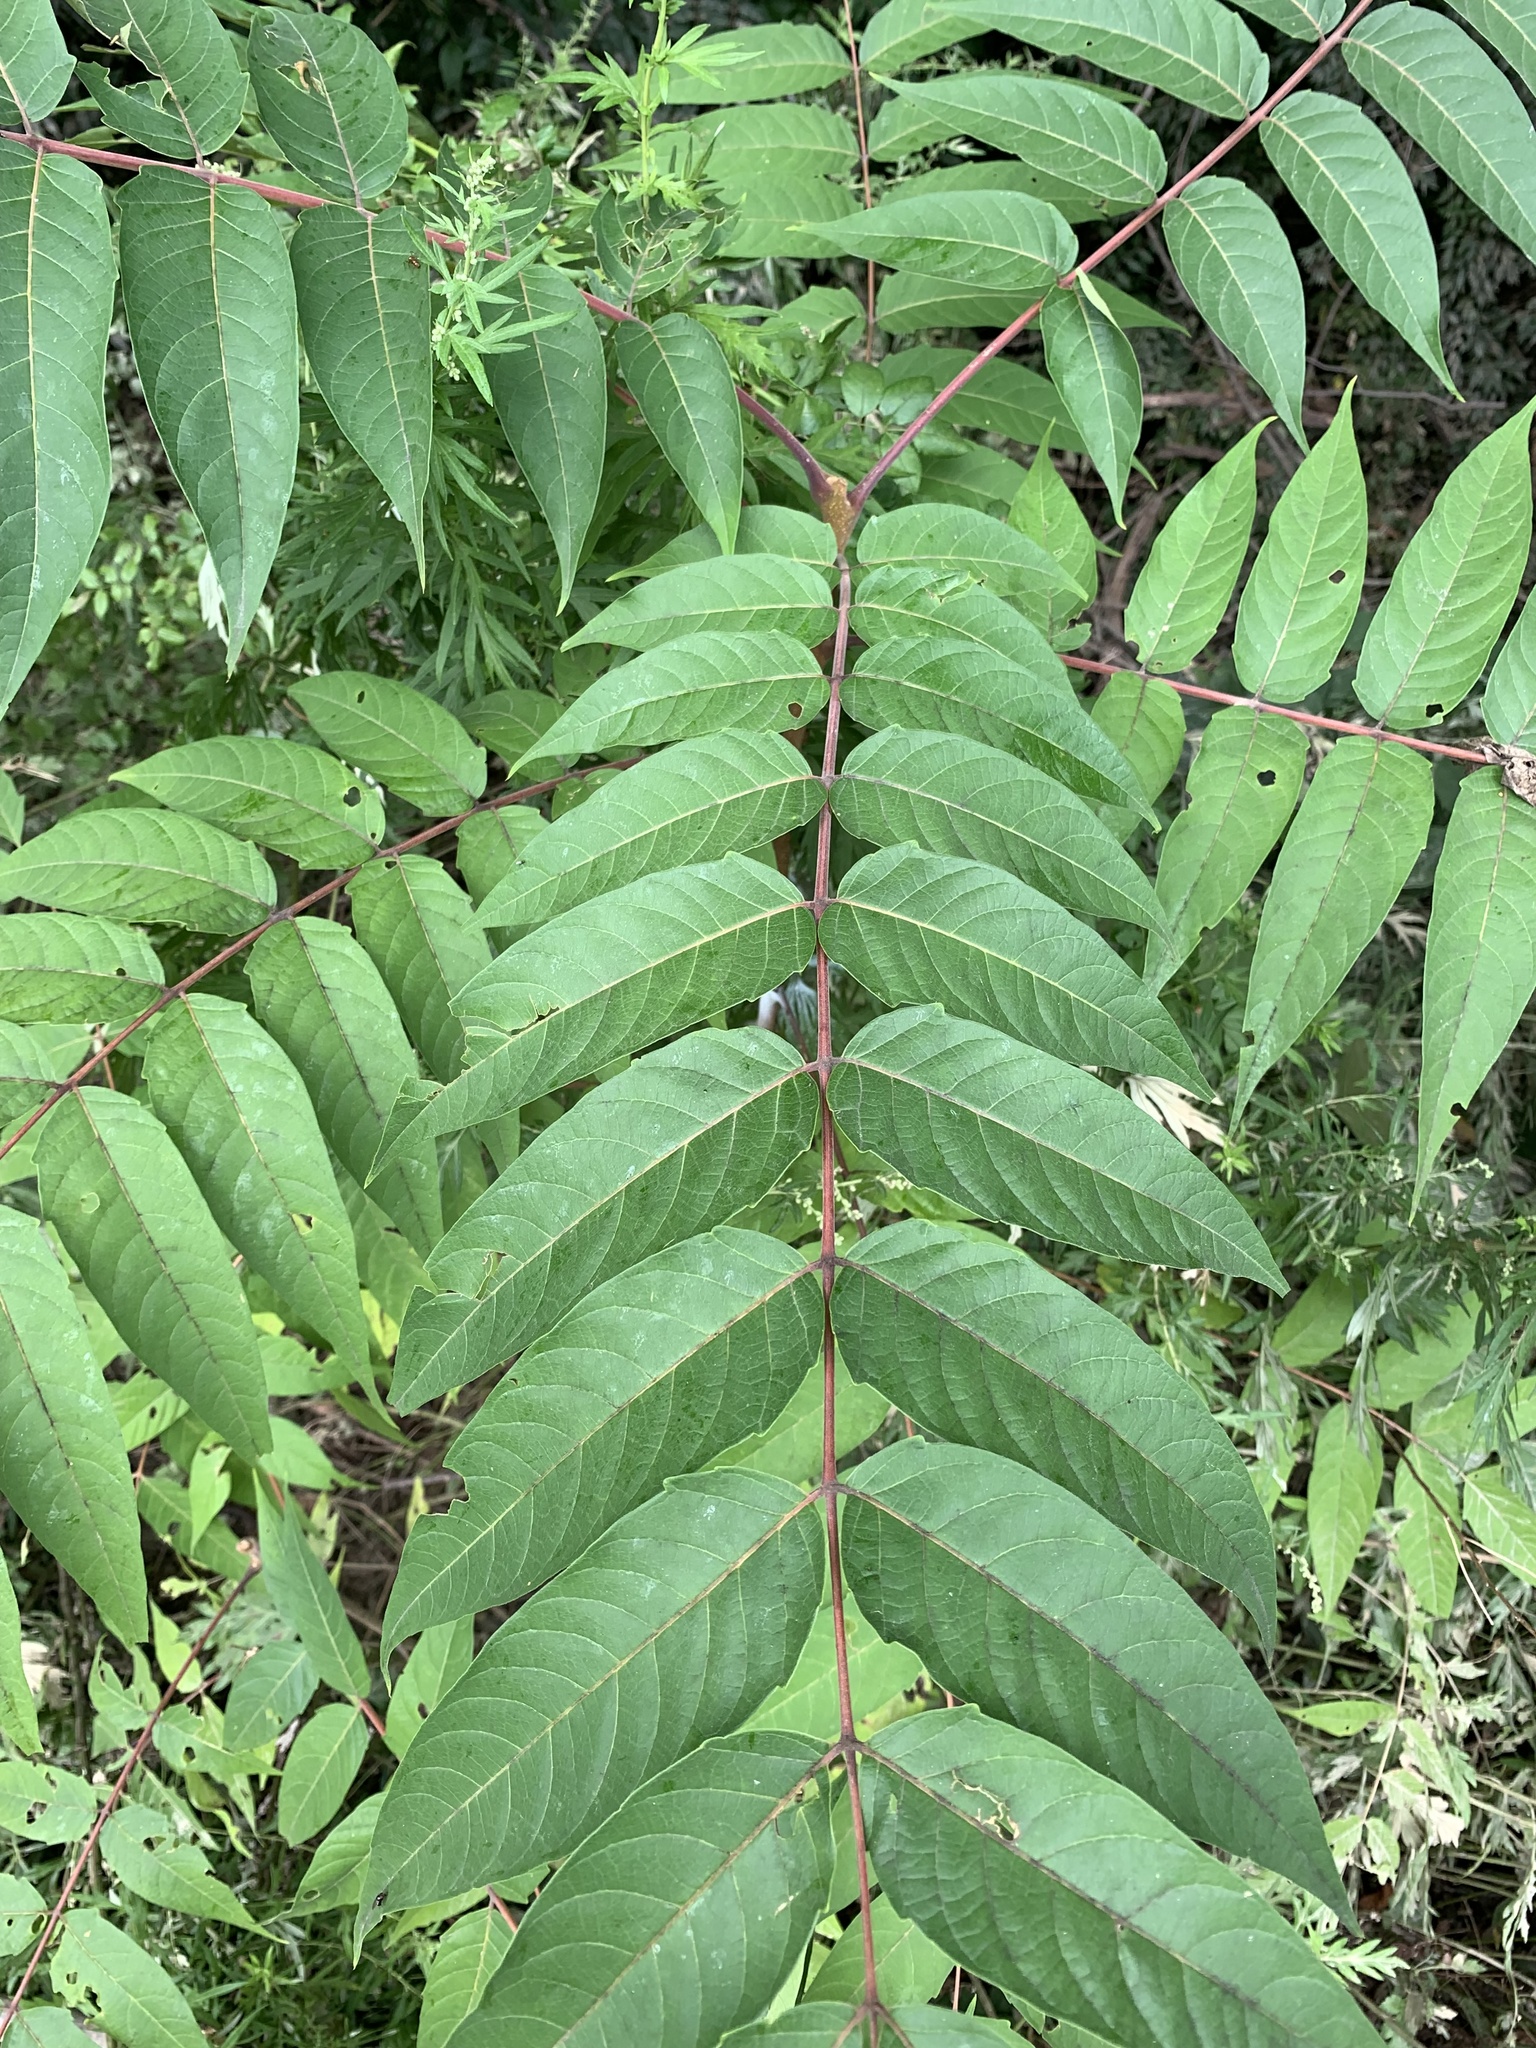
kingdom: Plantae
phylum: Tracheophyta
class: Magnoliopsida
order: Sapindales
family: Simaroubaceae
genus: Ailanthus
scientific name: Ailanthus altissima
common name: Tree-of-heaven
